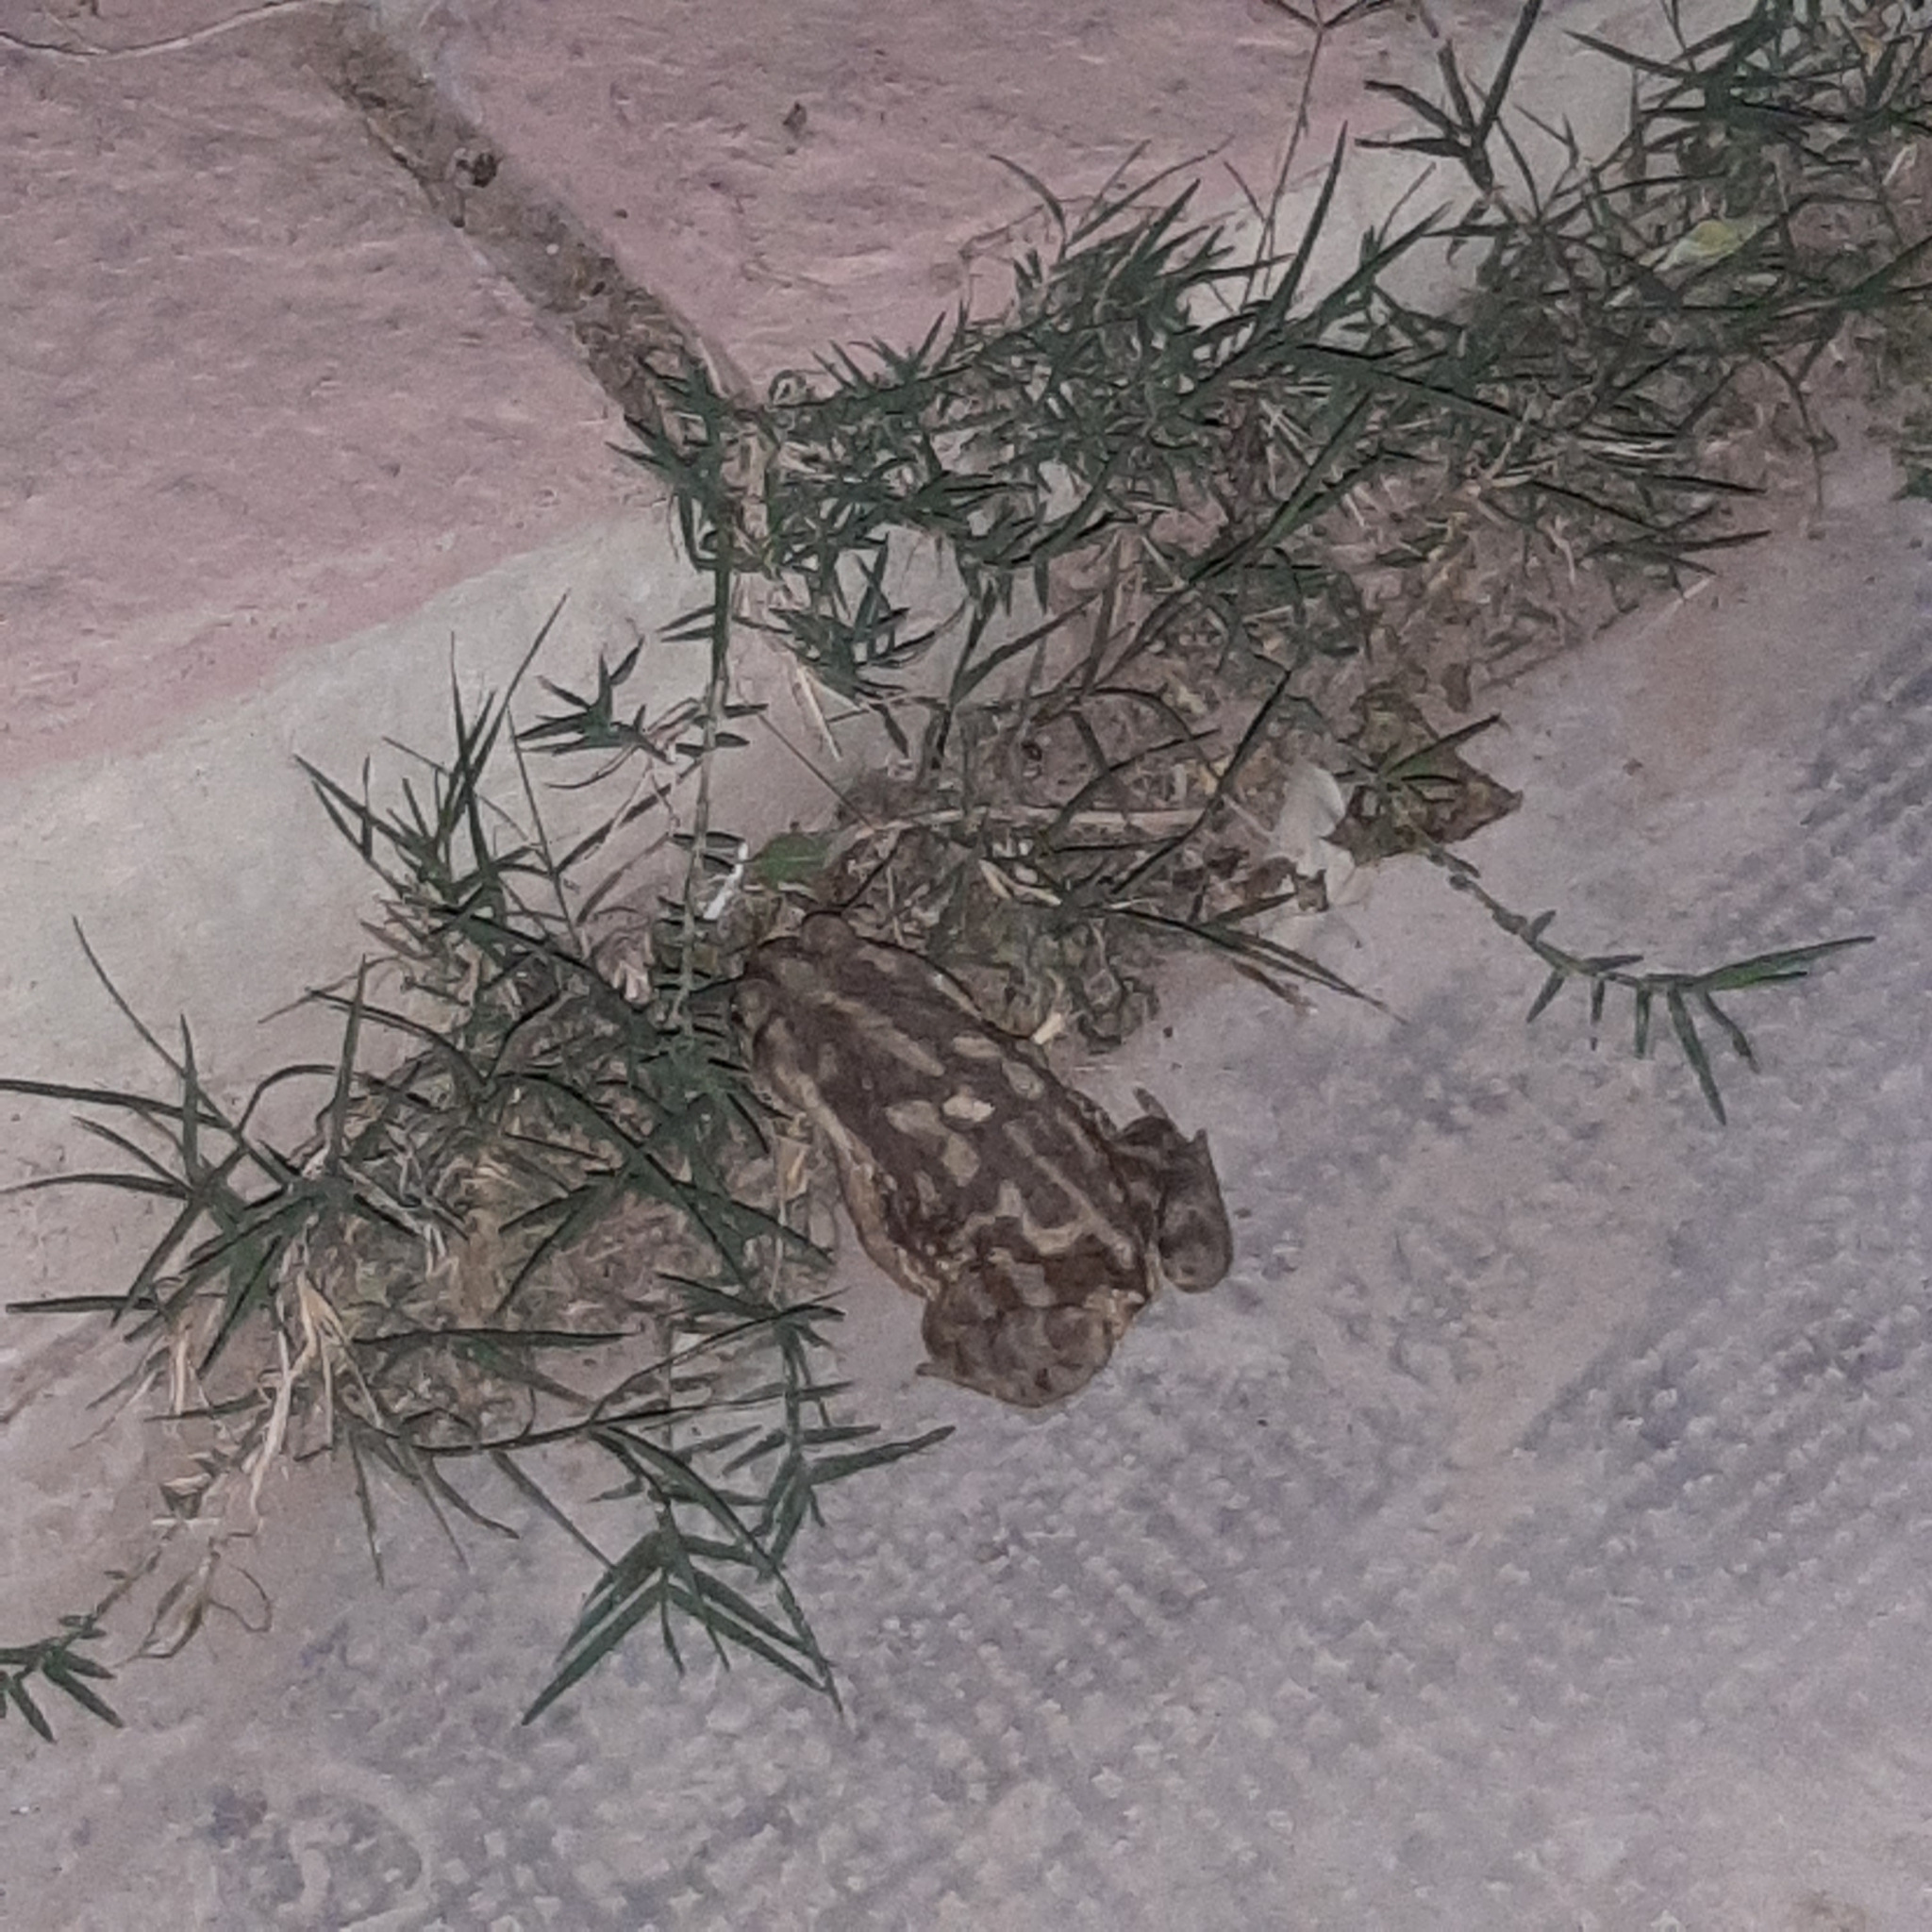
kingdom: Animalia
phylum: Chordata
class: Amphibia
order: Anura
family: Bufonidae
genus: Rhinella
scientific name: Rhinella arenarum
